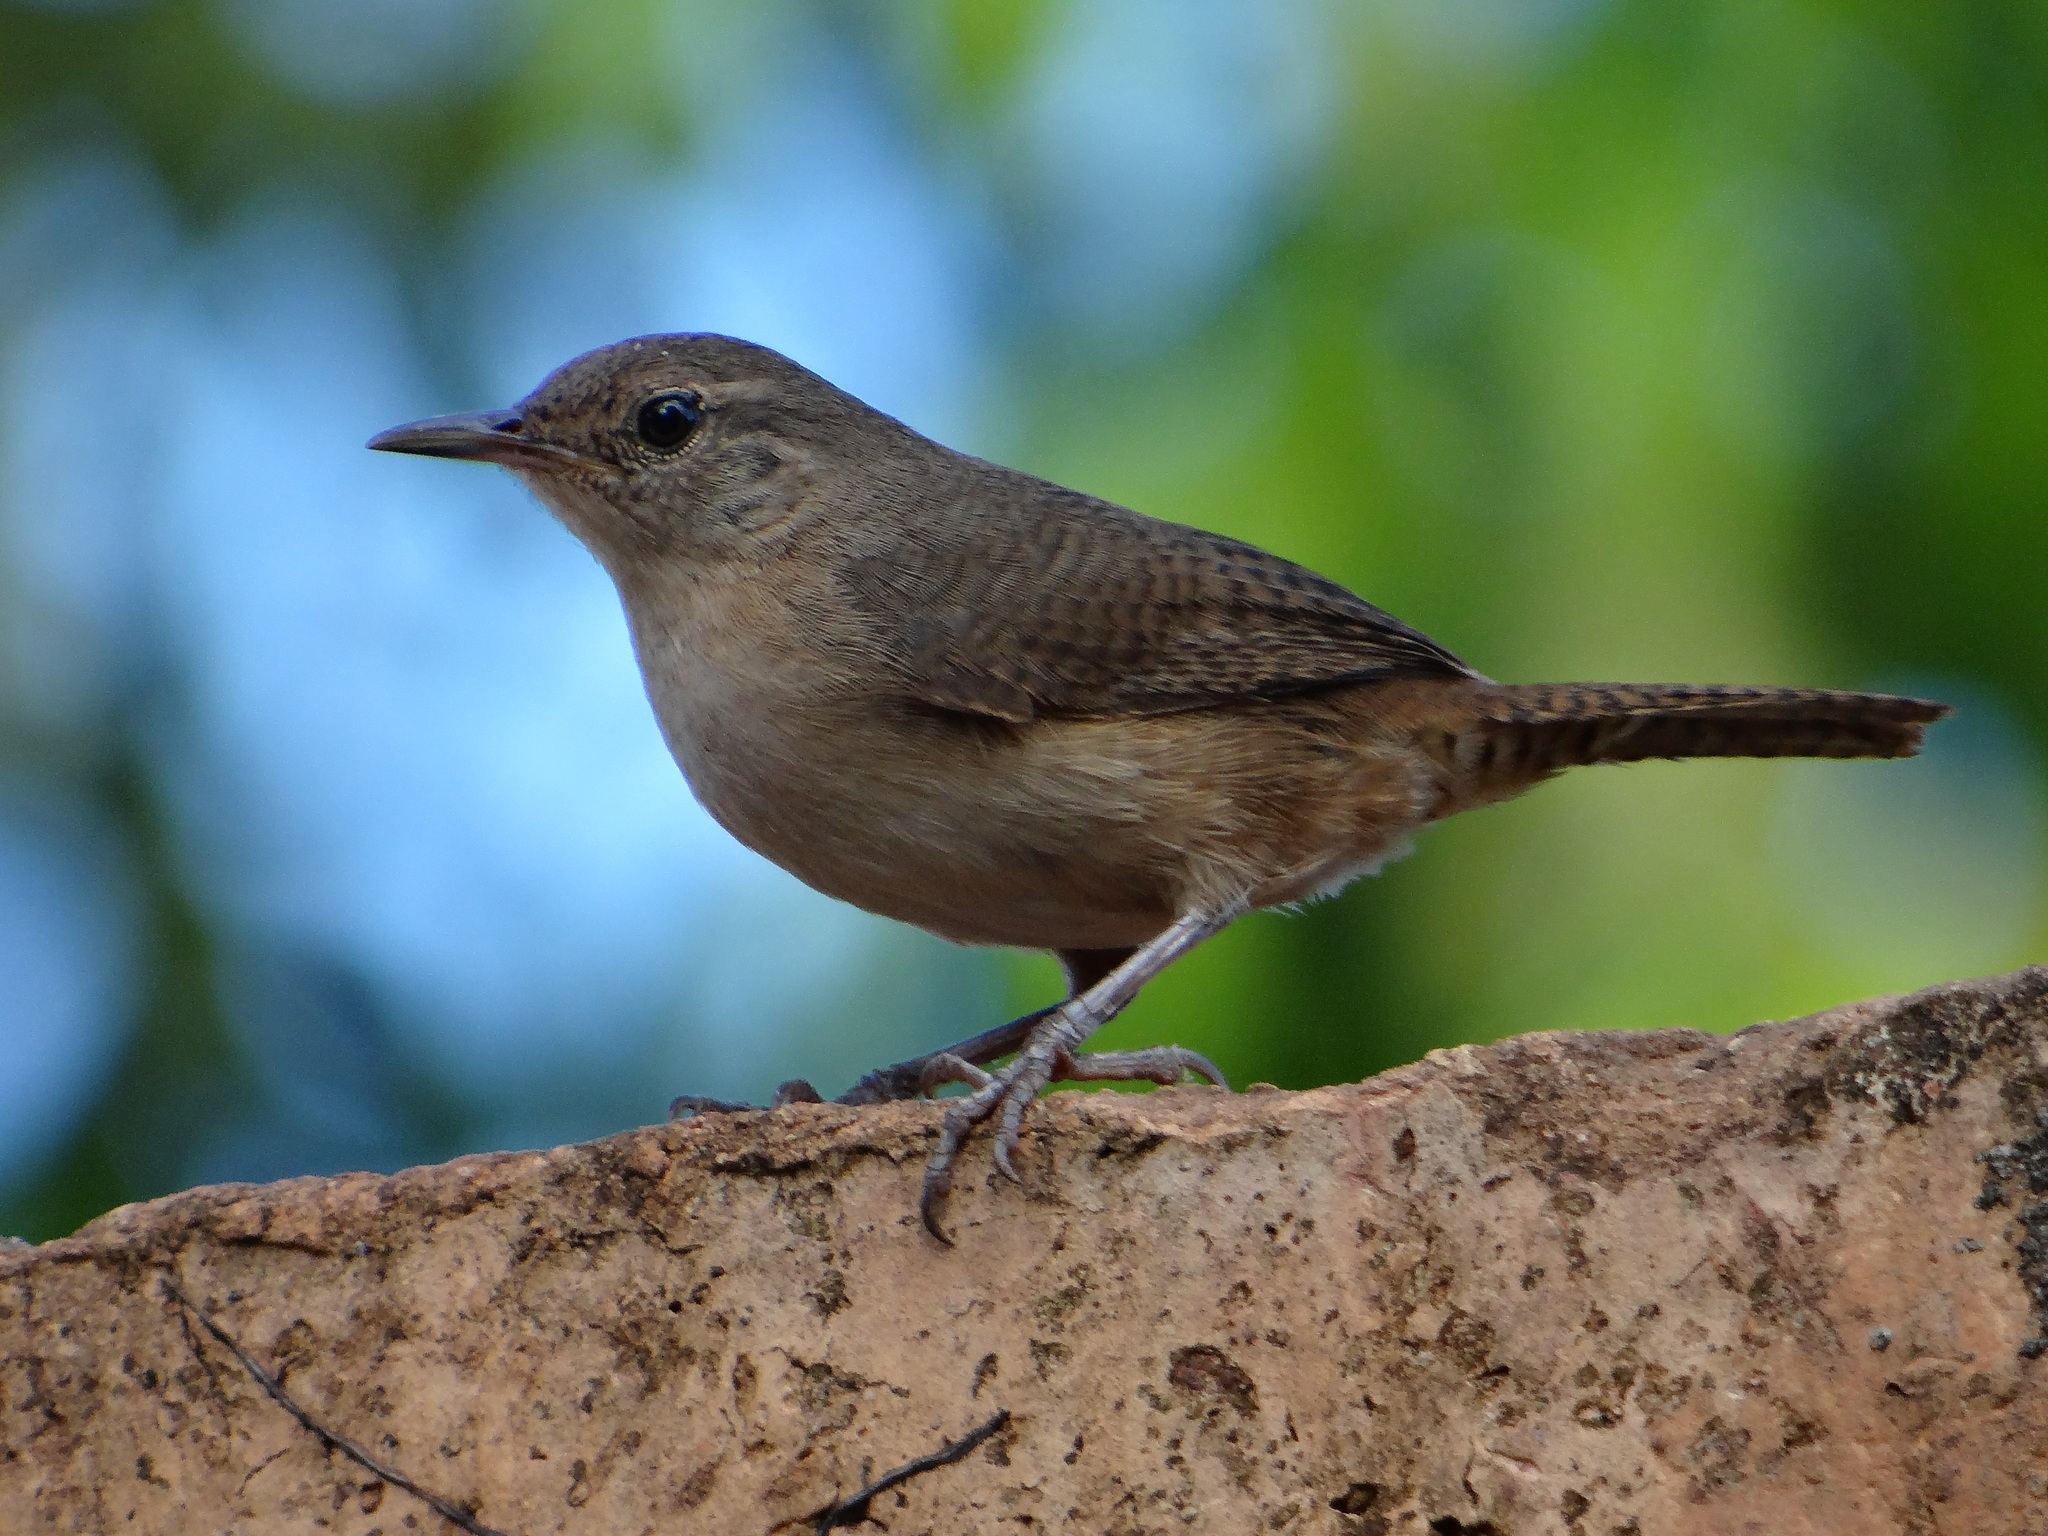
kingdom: Animalia
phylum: Chordata
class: Aves
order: Passeriformes
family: Troglodytidae
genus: Troglodytes
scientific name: Troglodytes aedon
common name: House wren
